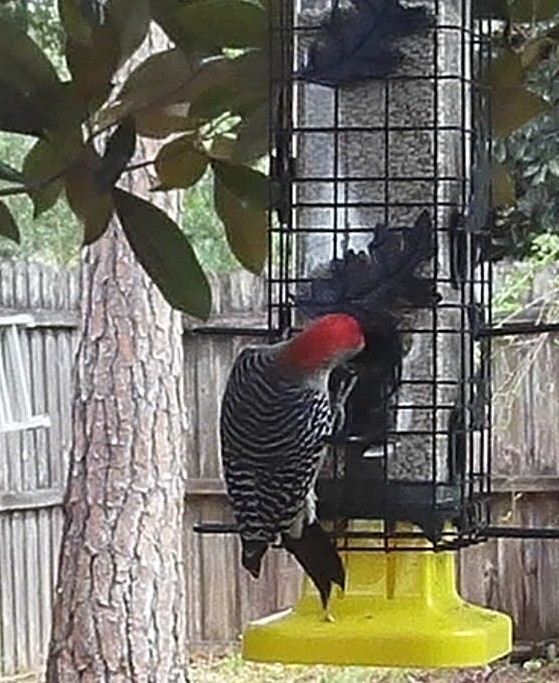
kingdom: Animalia
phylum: Chordata
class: Aves
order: Piciformes
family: Picidae
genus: Melanerpes
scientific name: Melanerpes carolinus
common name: Red-bellied woodpecker
